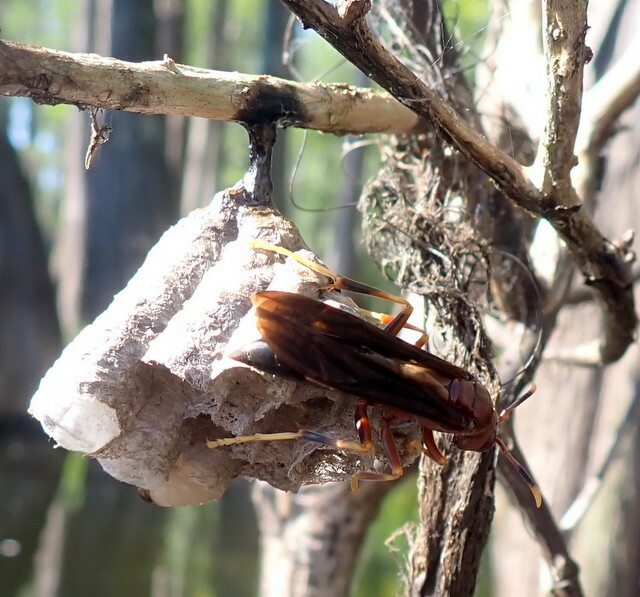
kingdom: Animalia
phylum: Arthropoda
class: Insecta
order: Hymenoptera
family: Eumenidae
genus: Polistes
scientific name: Polistes annularis
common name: Ringed paper wasp
